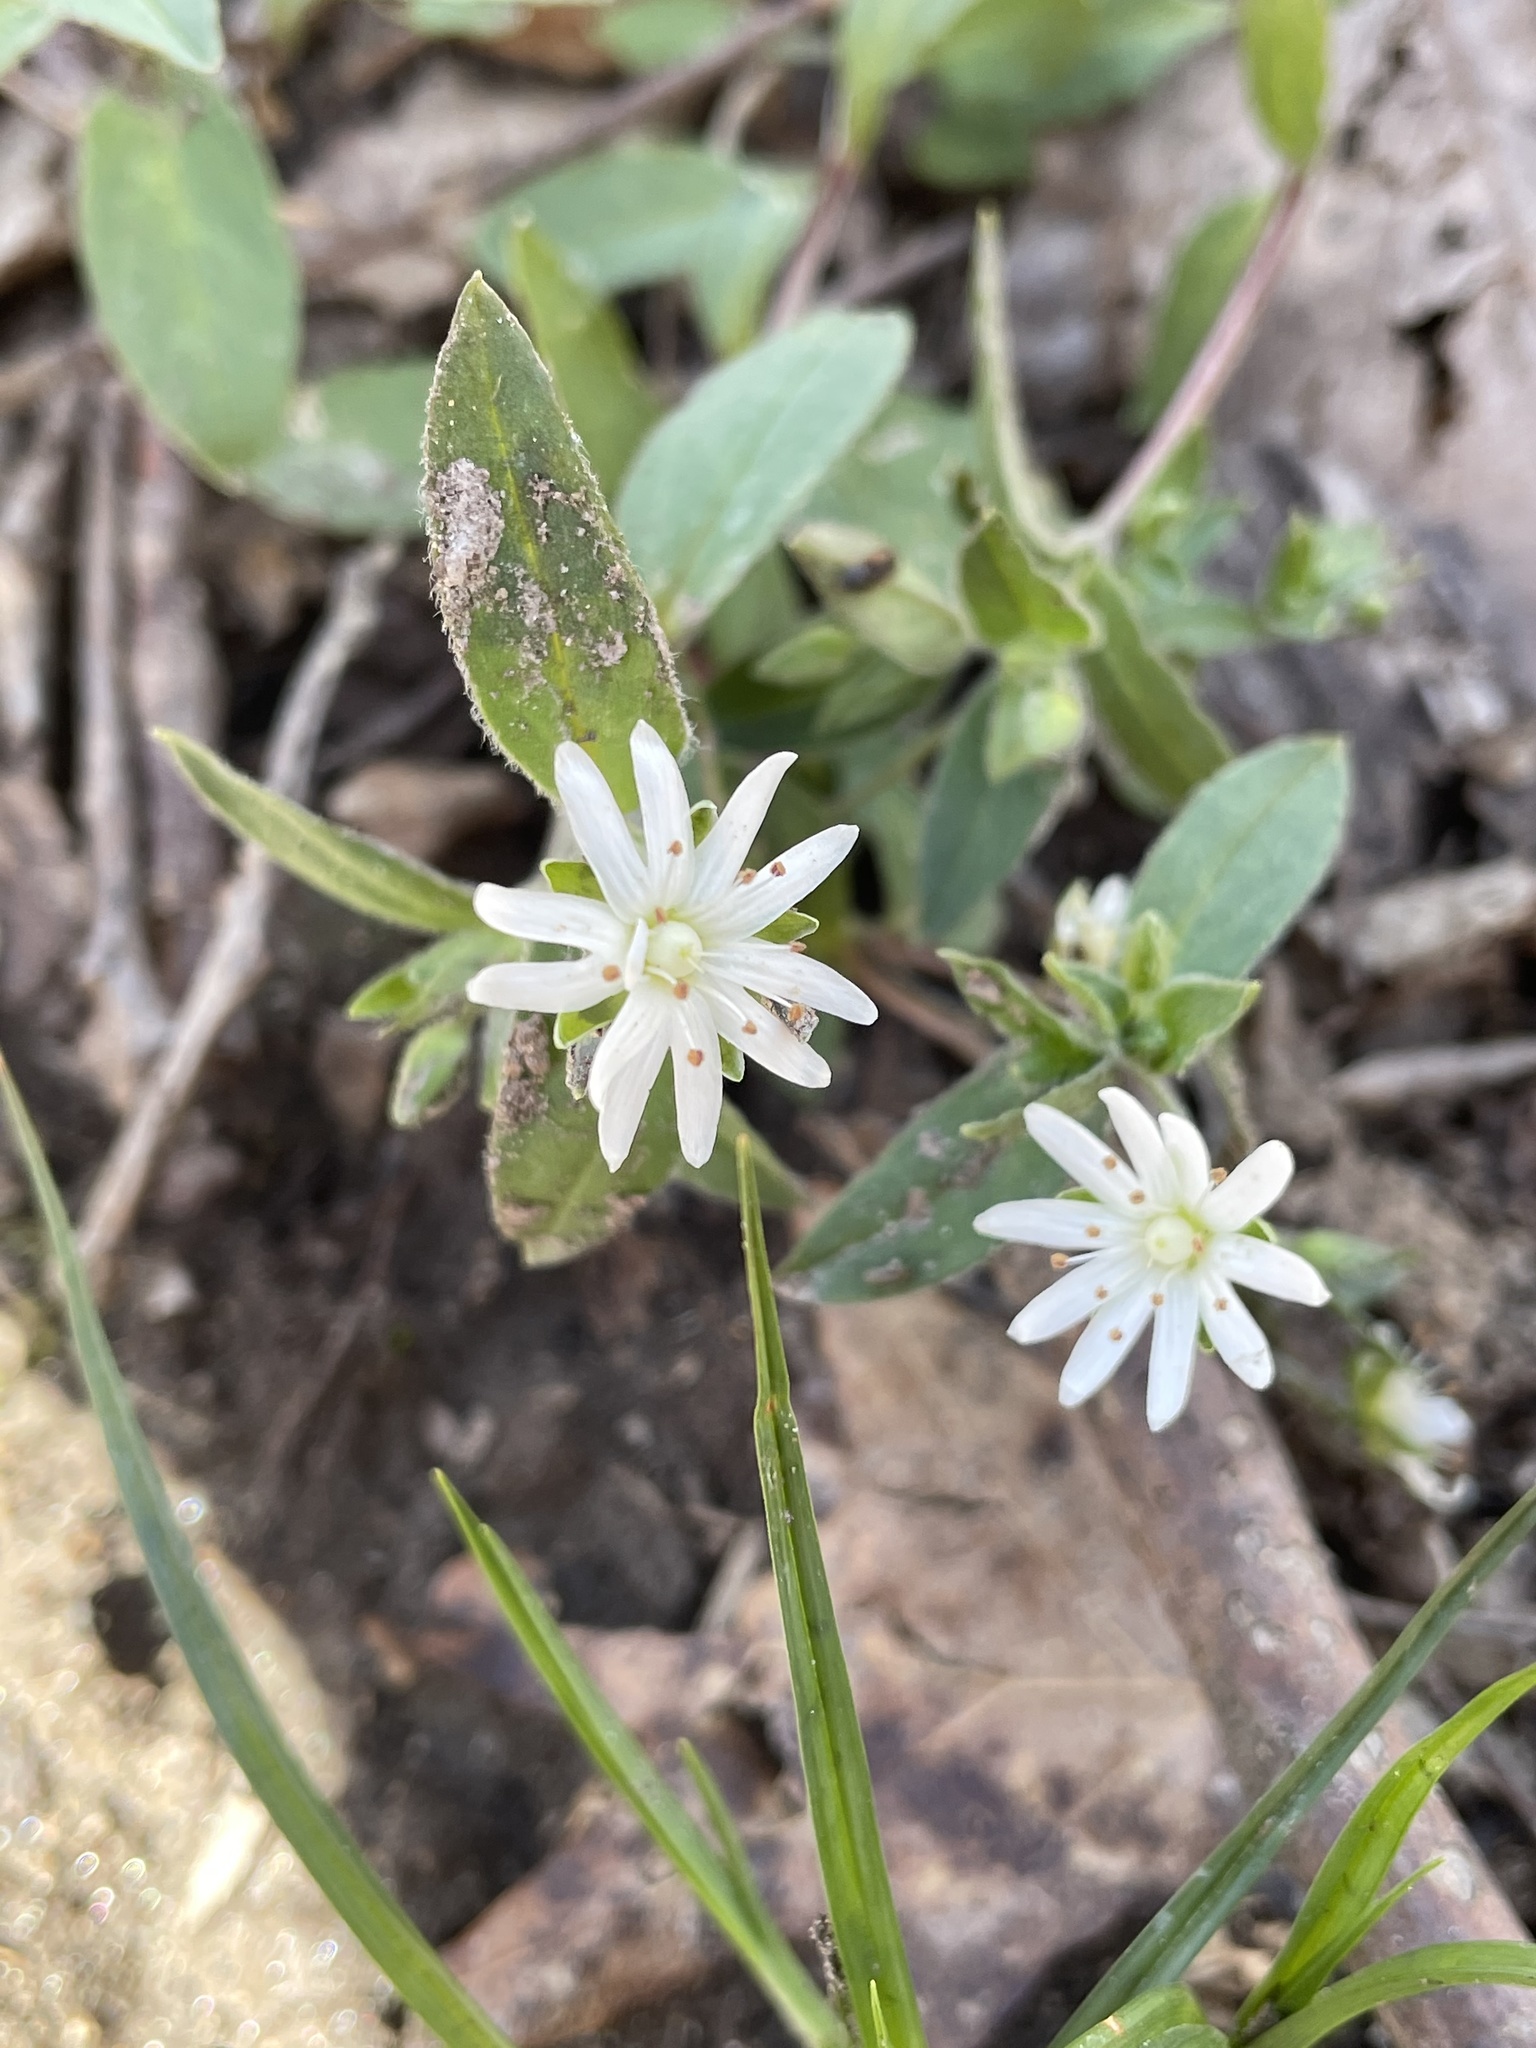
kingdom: Plantae
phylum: Tracheophyta
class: Magnoliopsida
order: Caryophyllales
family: Caryophyllaceae
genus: Stellaria
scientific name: Stellaria pubera
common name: Star chickweed
